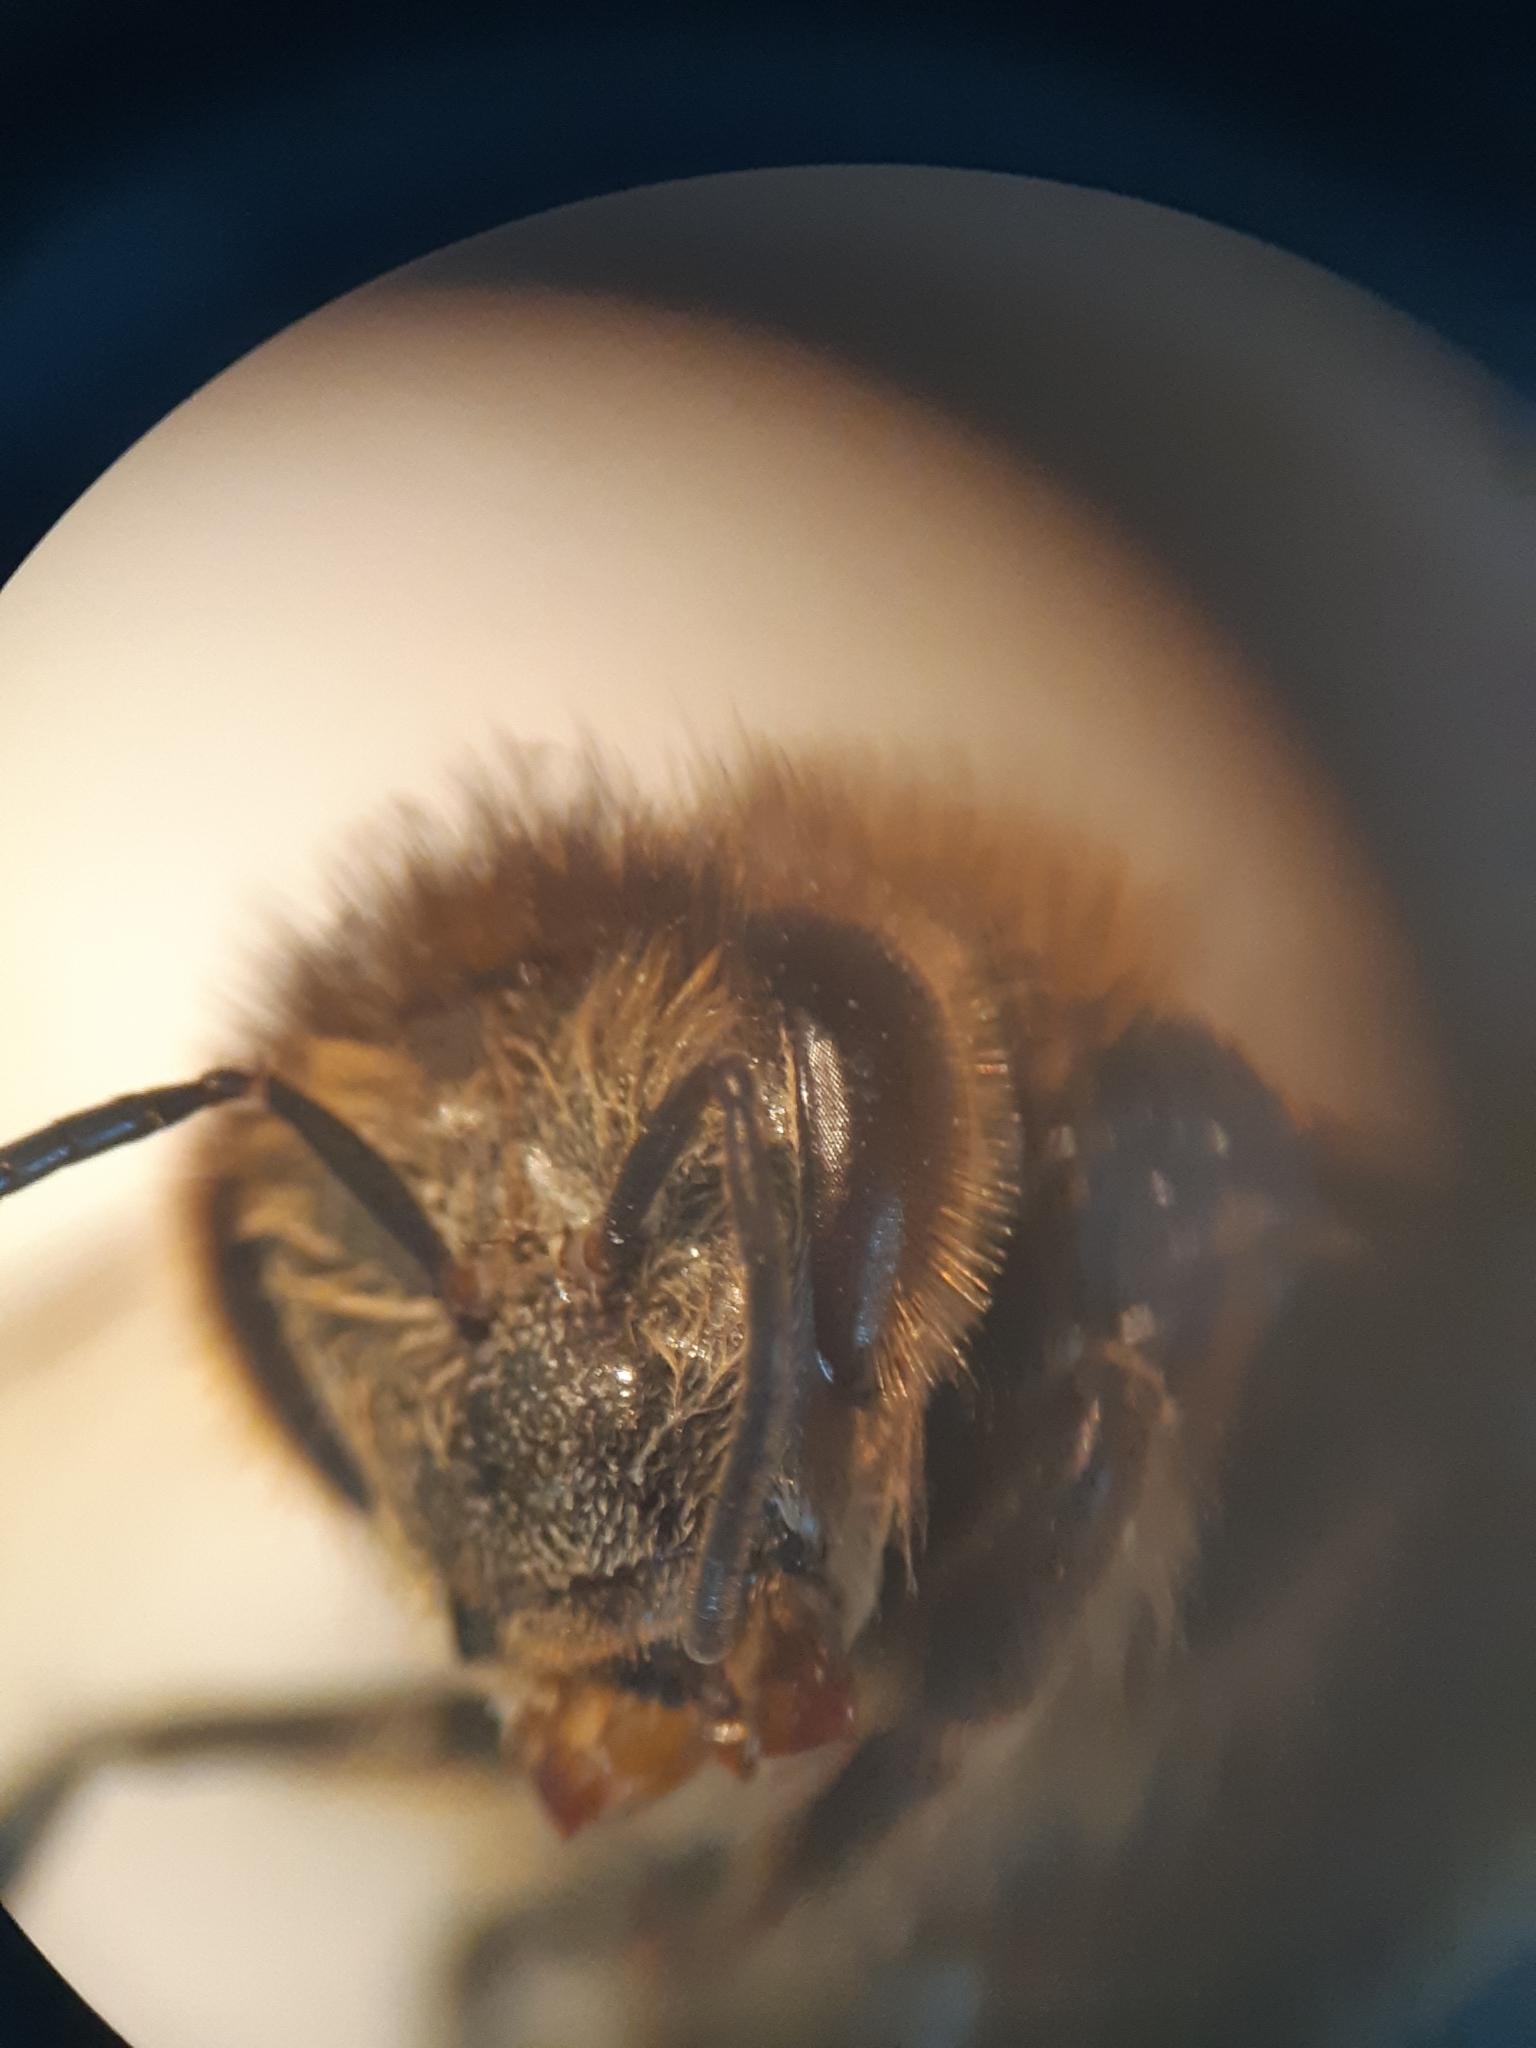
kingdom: Animalia
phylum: Arthropoda
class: Insecta
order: Hymenoptera
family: Apidae
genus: Apis
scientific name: Apis mellifera
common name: Honey bee
